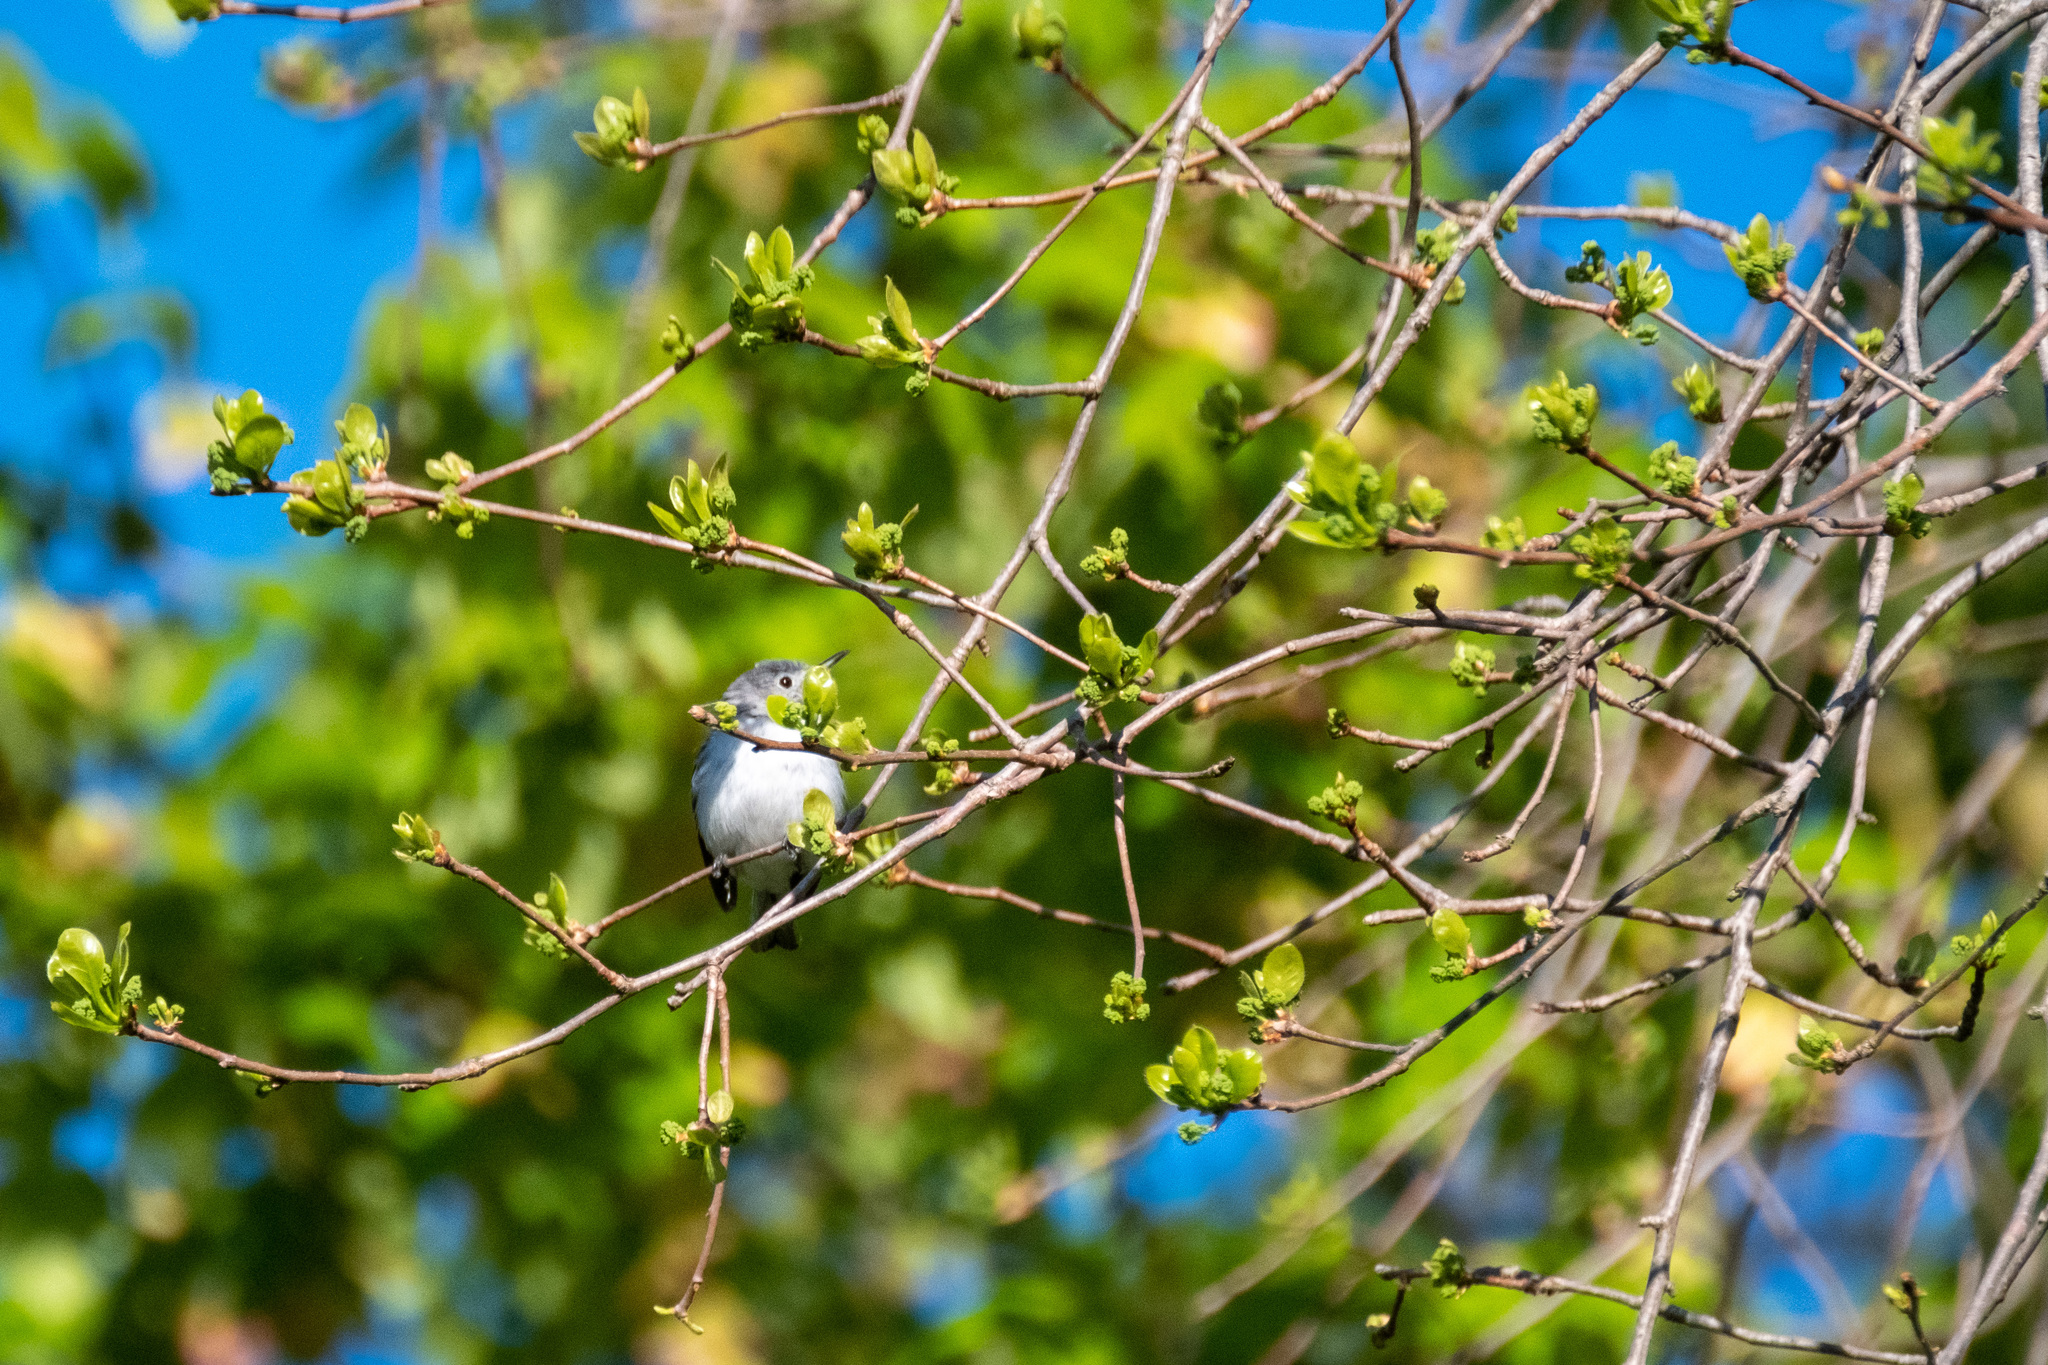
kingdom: Animalia
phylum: Chordata
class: Aves
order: Passeriformes
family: Polioptilidae
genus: Polioptila
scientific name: Polioptila caerulea
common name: Blue-gray gnatcatcher
